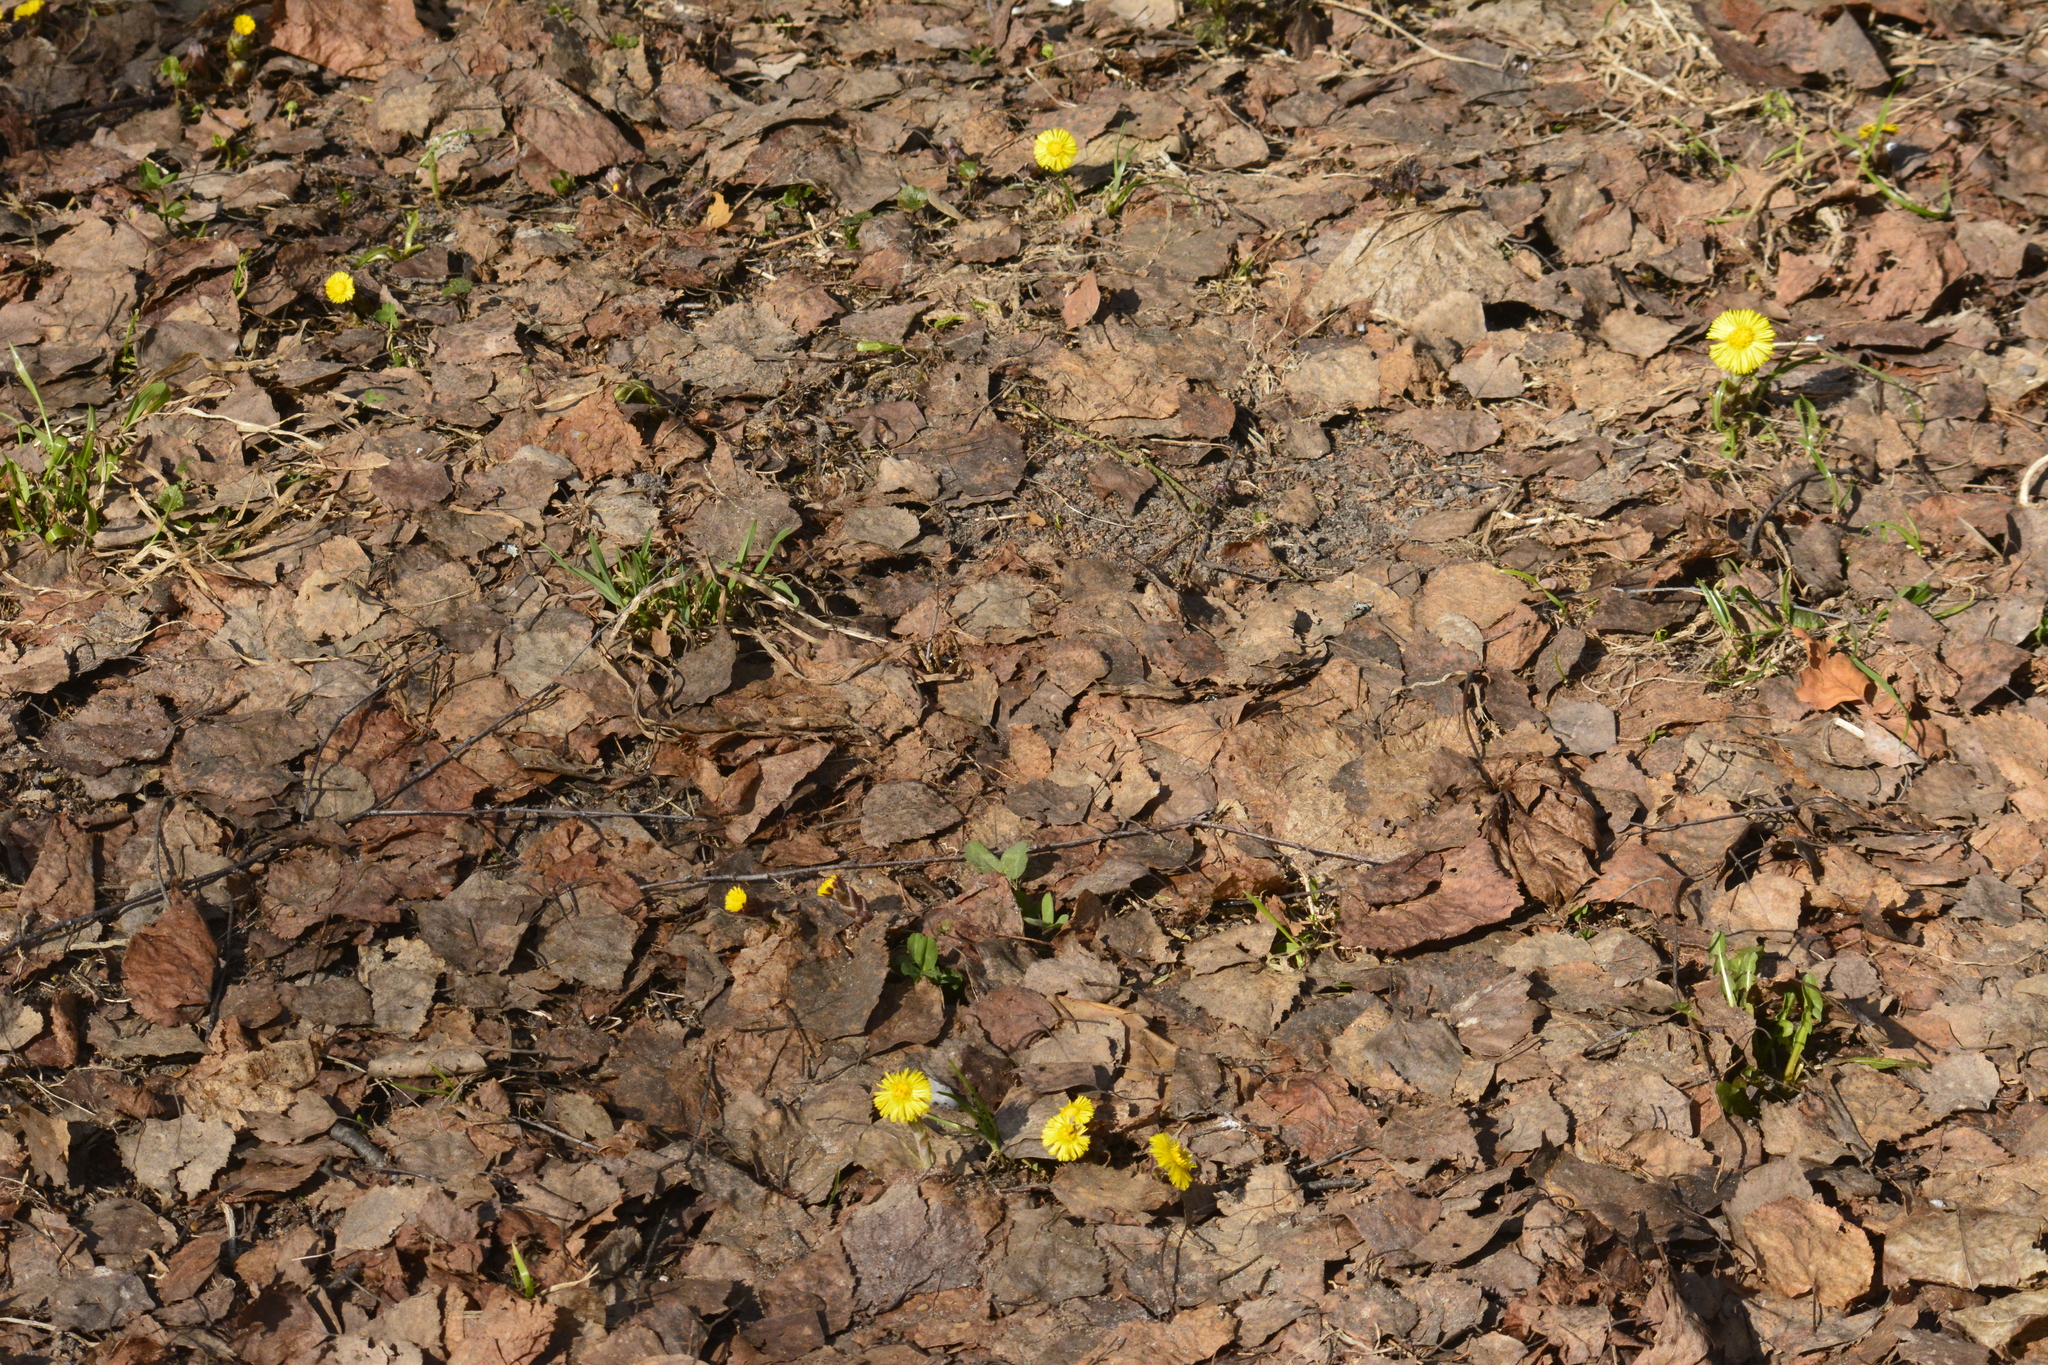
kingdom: Plantae
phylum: Tracheophyta
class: Magnoliopsida
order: Asterales
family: Asteraceae
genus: Tussilago
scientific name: Tussilago farfara
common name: Coltsfoot
